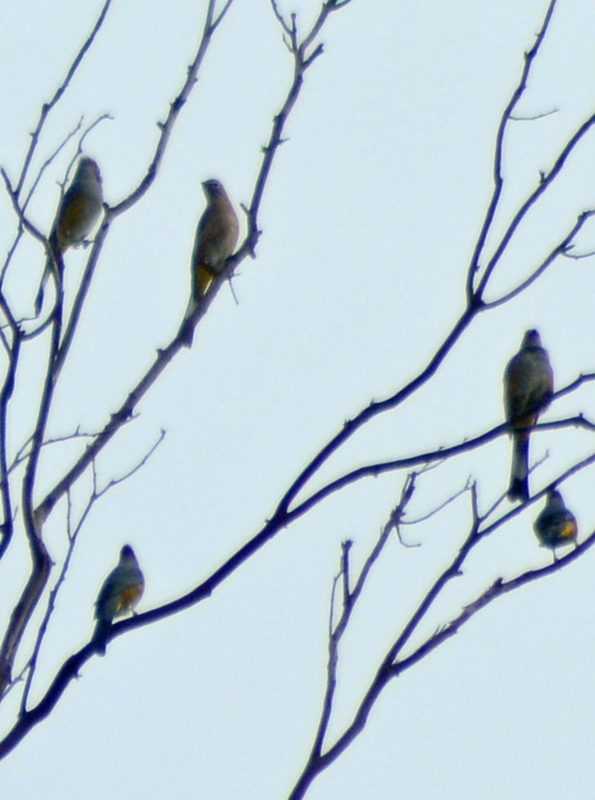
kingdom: Animalia
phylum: Chordata
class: Aves
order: Passeriformes
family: Ptilogonatidae
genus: Ptilogonys
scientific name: Ptilogonys cinereus
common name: Gray silky-flycatcher
